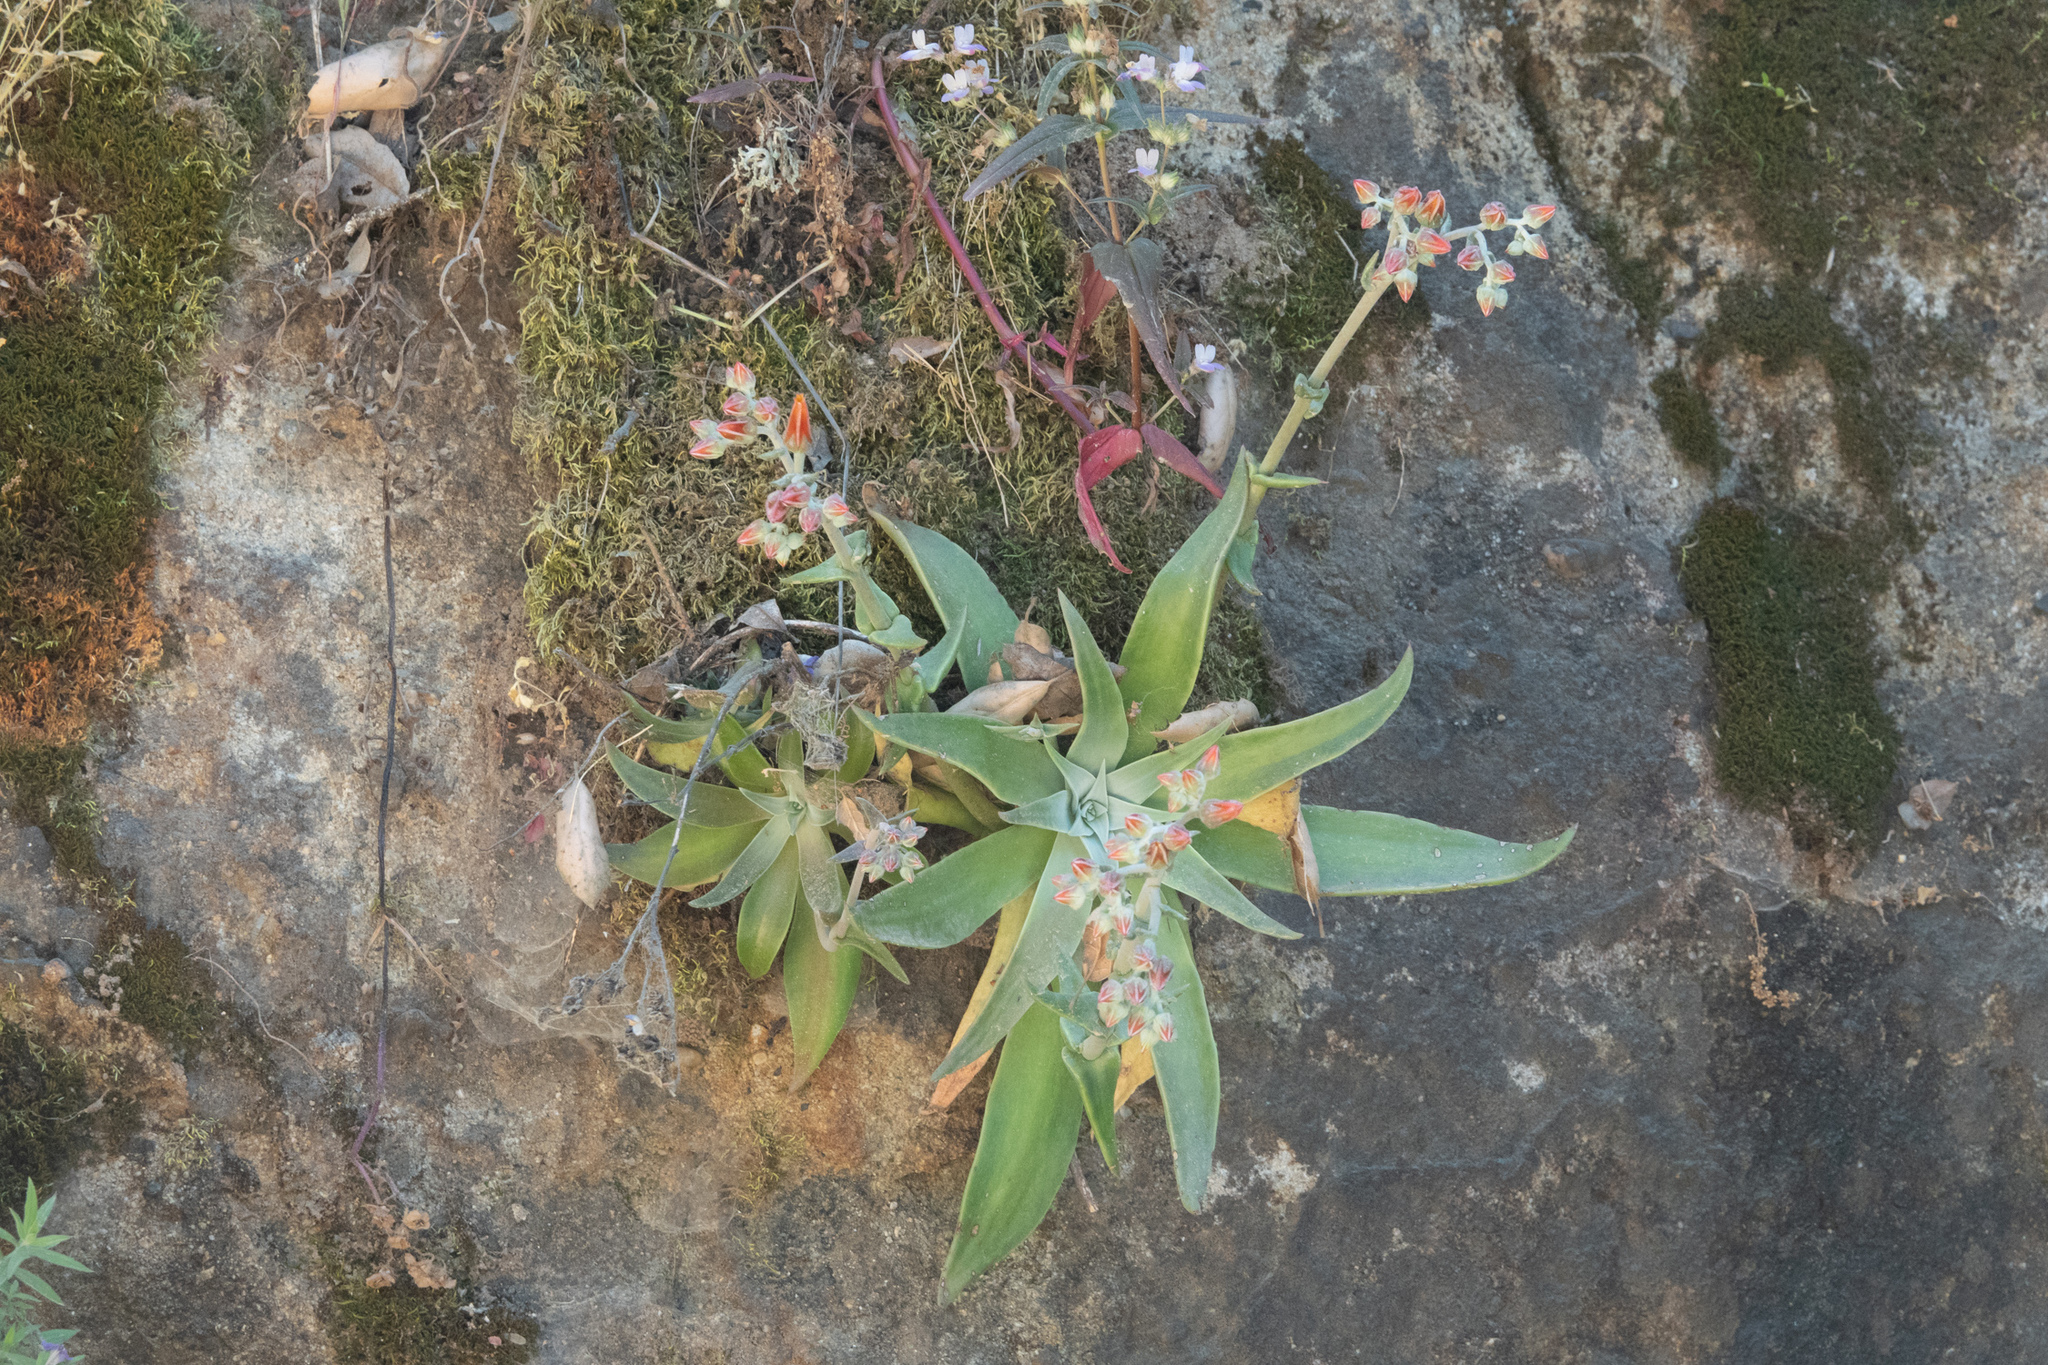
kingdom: Plantae
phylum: Tracheophyta
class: Magnoliopsida
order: Saxifragales
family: Crassulaceae
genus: Dudleya
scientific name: Dudleya lanceolata
